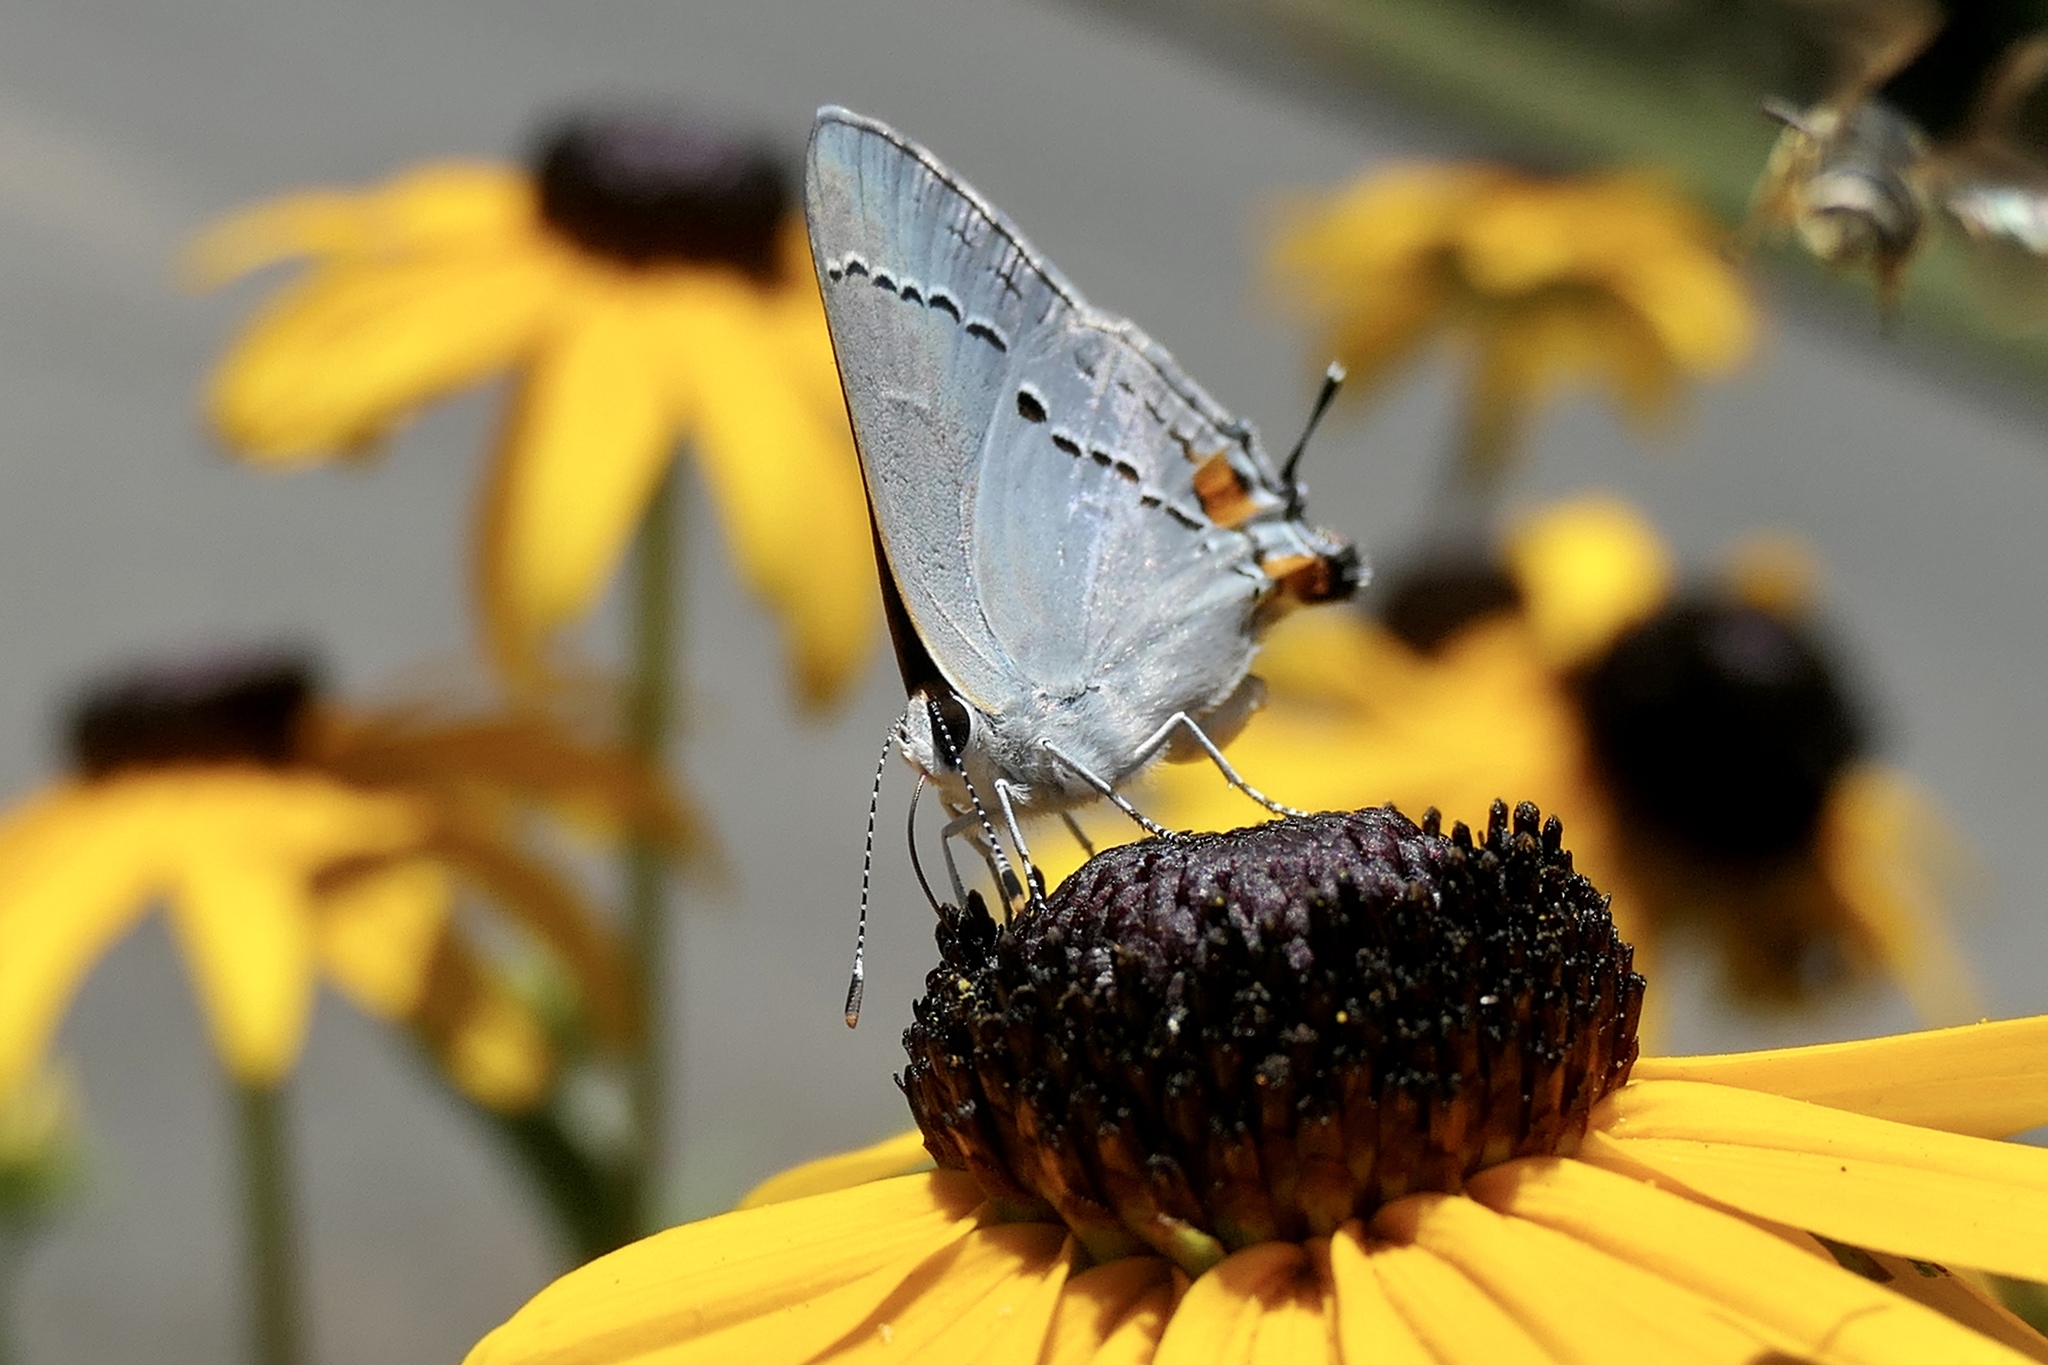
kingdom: Animalia
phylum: Arthropoda
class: Insecta
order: Lepidoptera
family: Lycaenidae
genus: Strymon
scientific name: Strymon melinus
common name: Gray hairstreak
